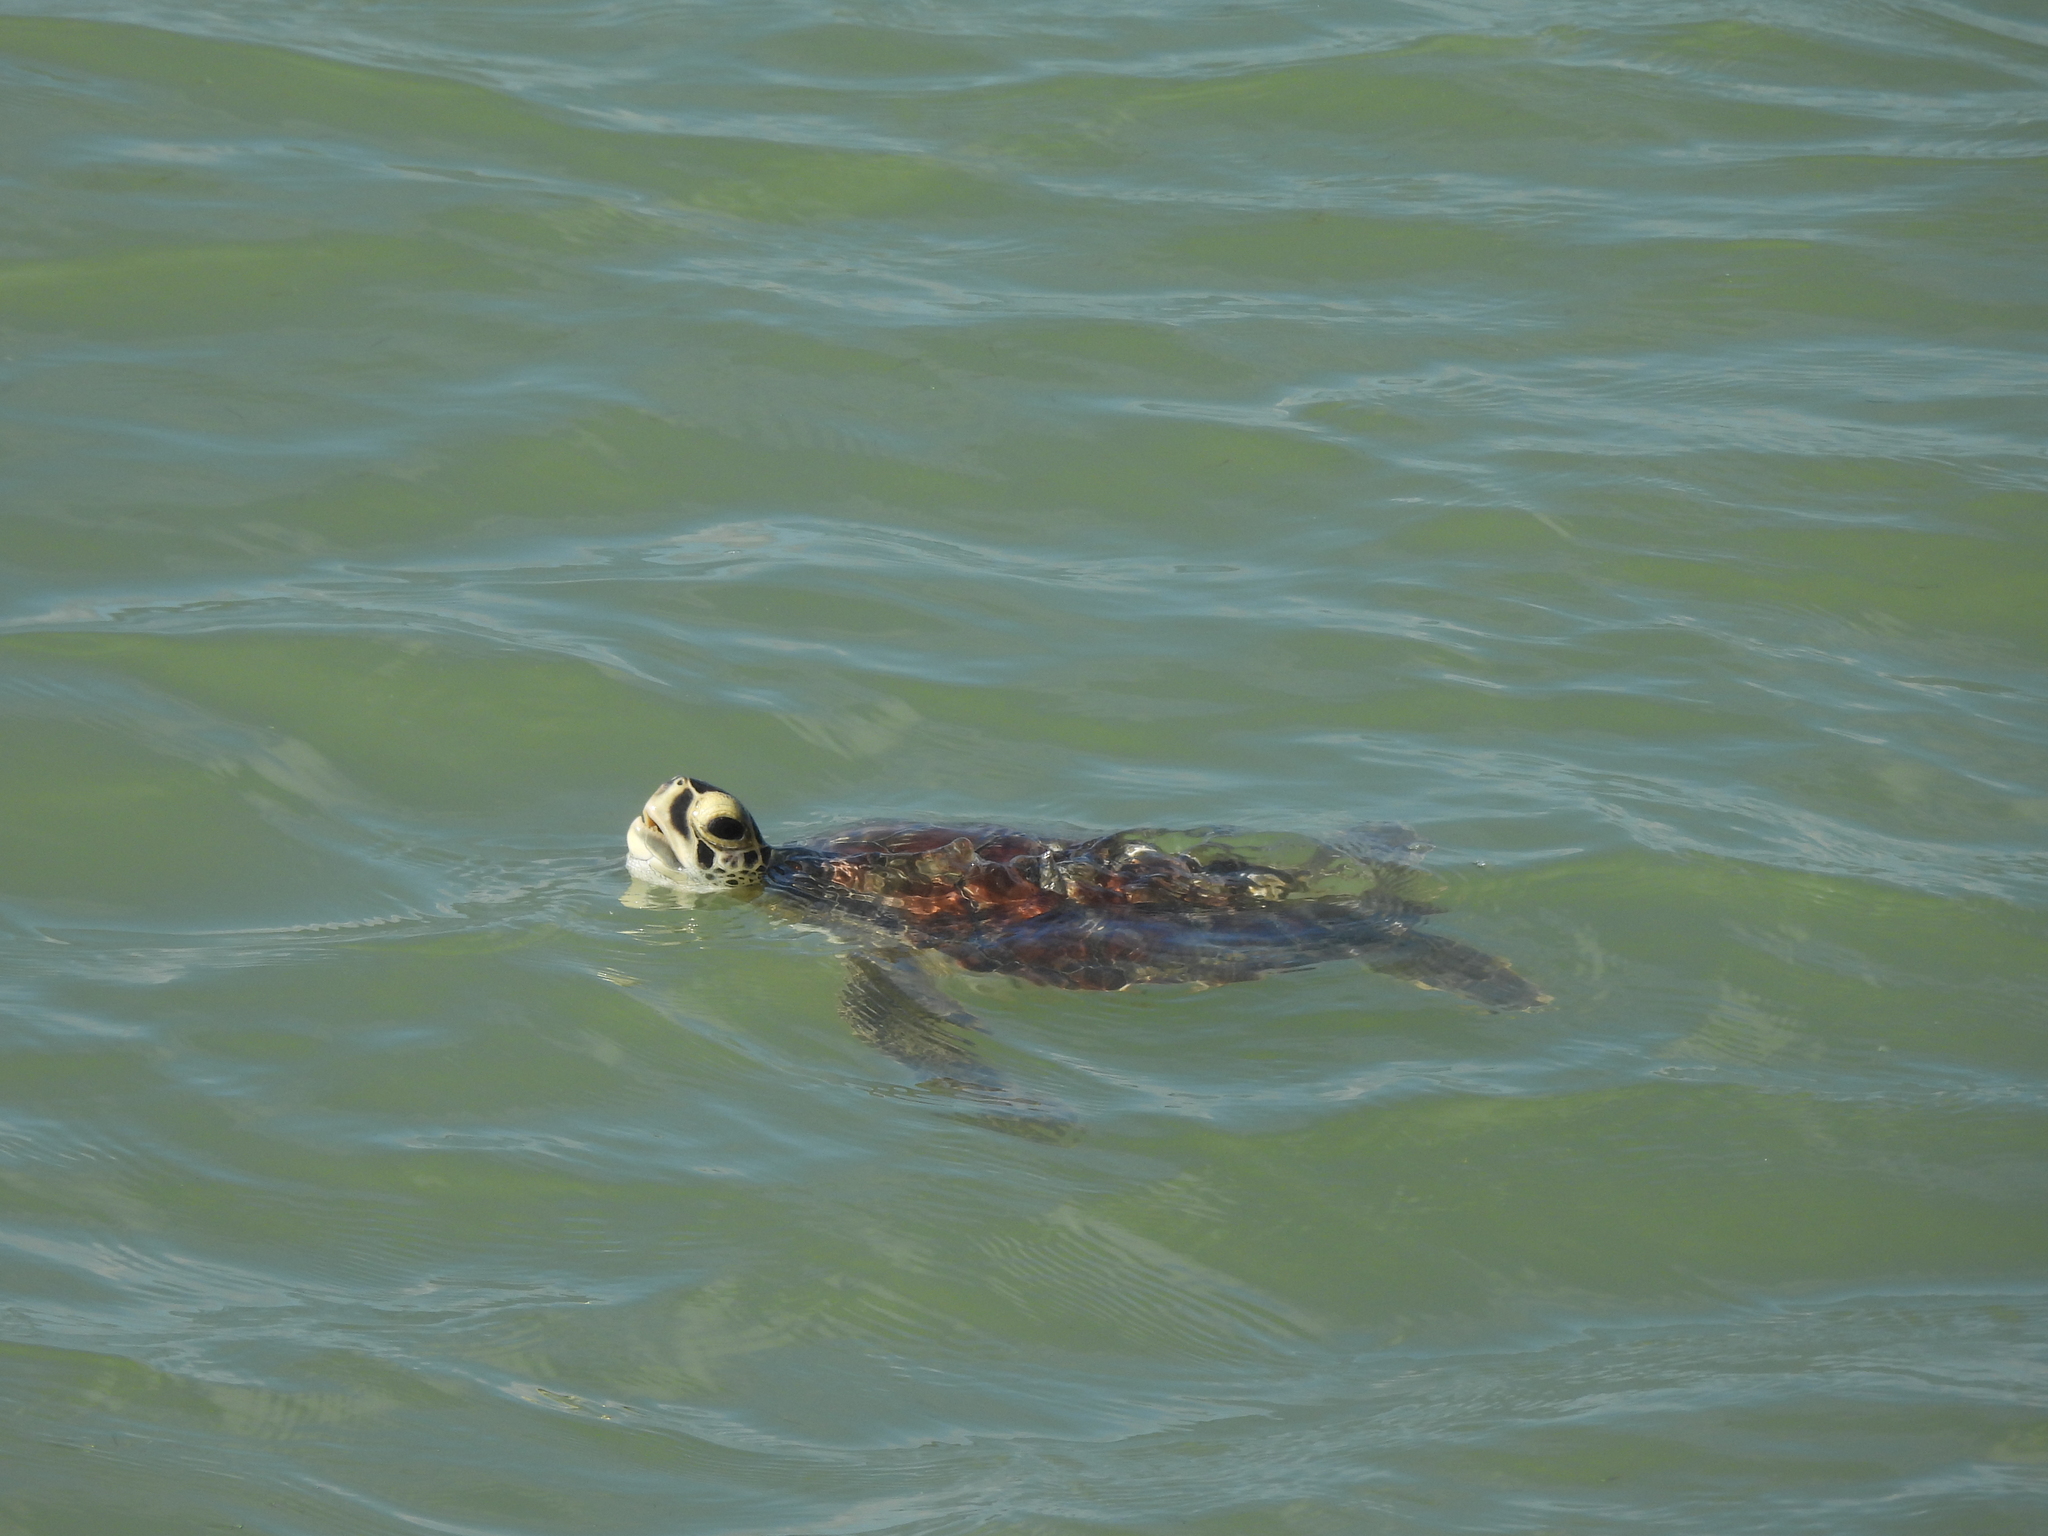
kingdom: Animalia
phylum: Chordata
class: Testudines
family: Cheloniidae
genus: Chelonia
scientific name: Chelonia mydas
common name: Green turtle
